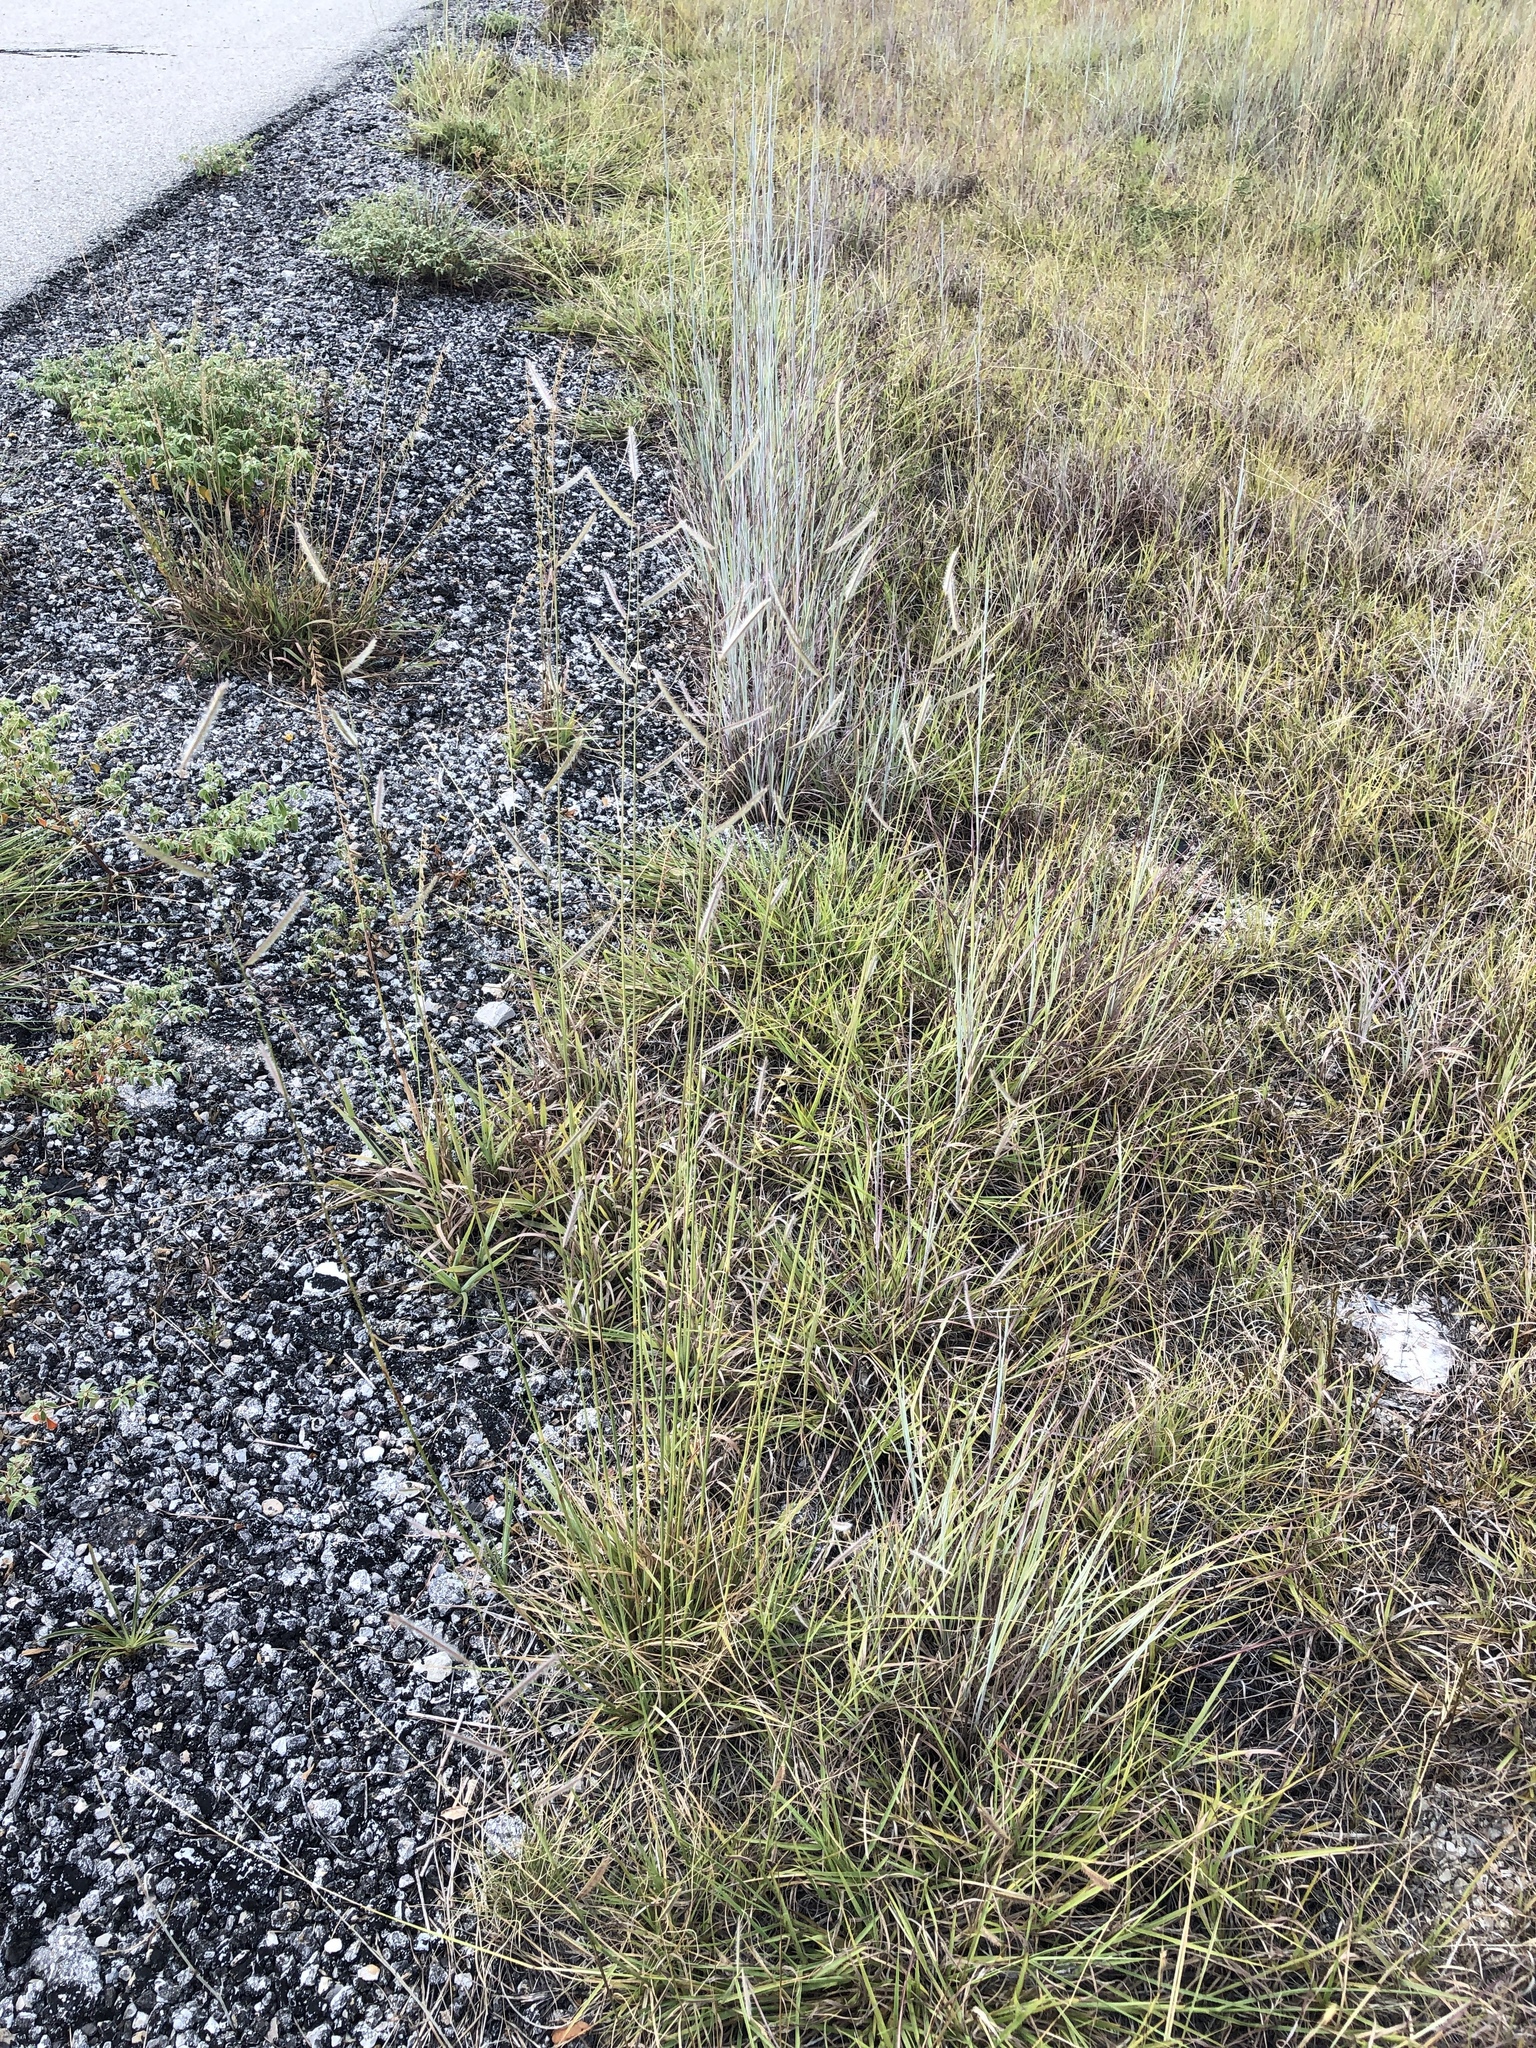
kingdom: Plantae
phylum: Tracheophyta
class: Liliopsida
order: Poales
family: Poaceae
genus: Bouteloua
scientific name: Bouteloua pectinata
